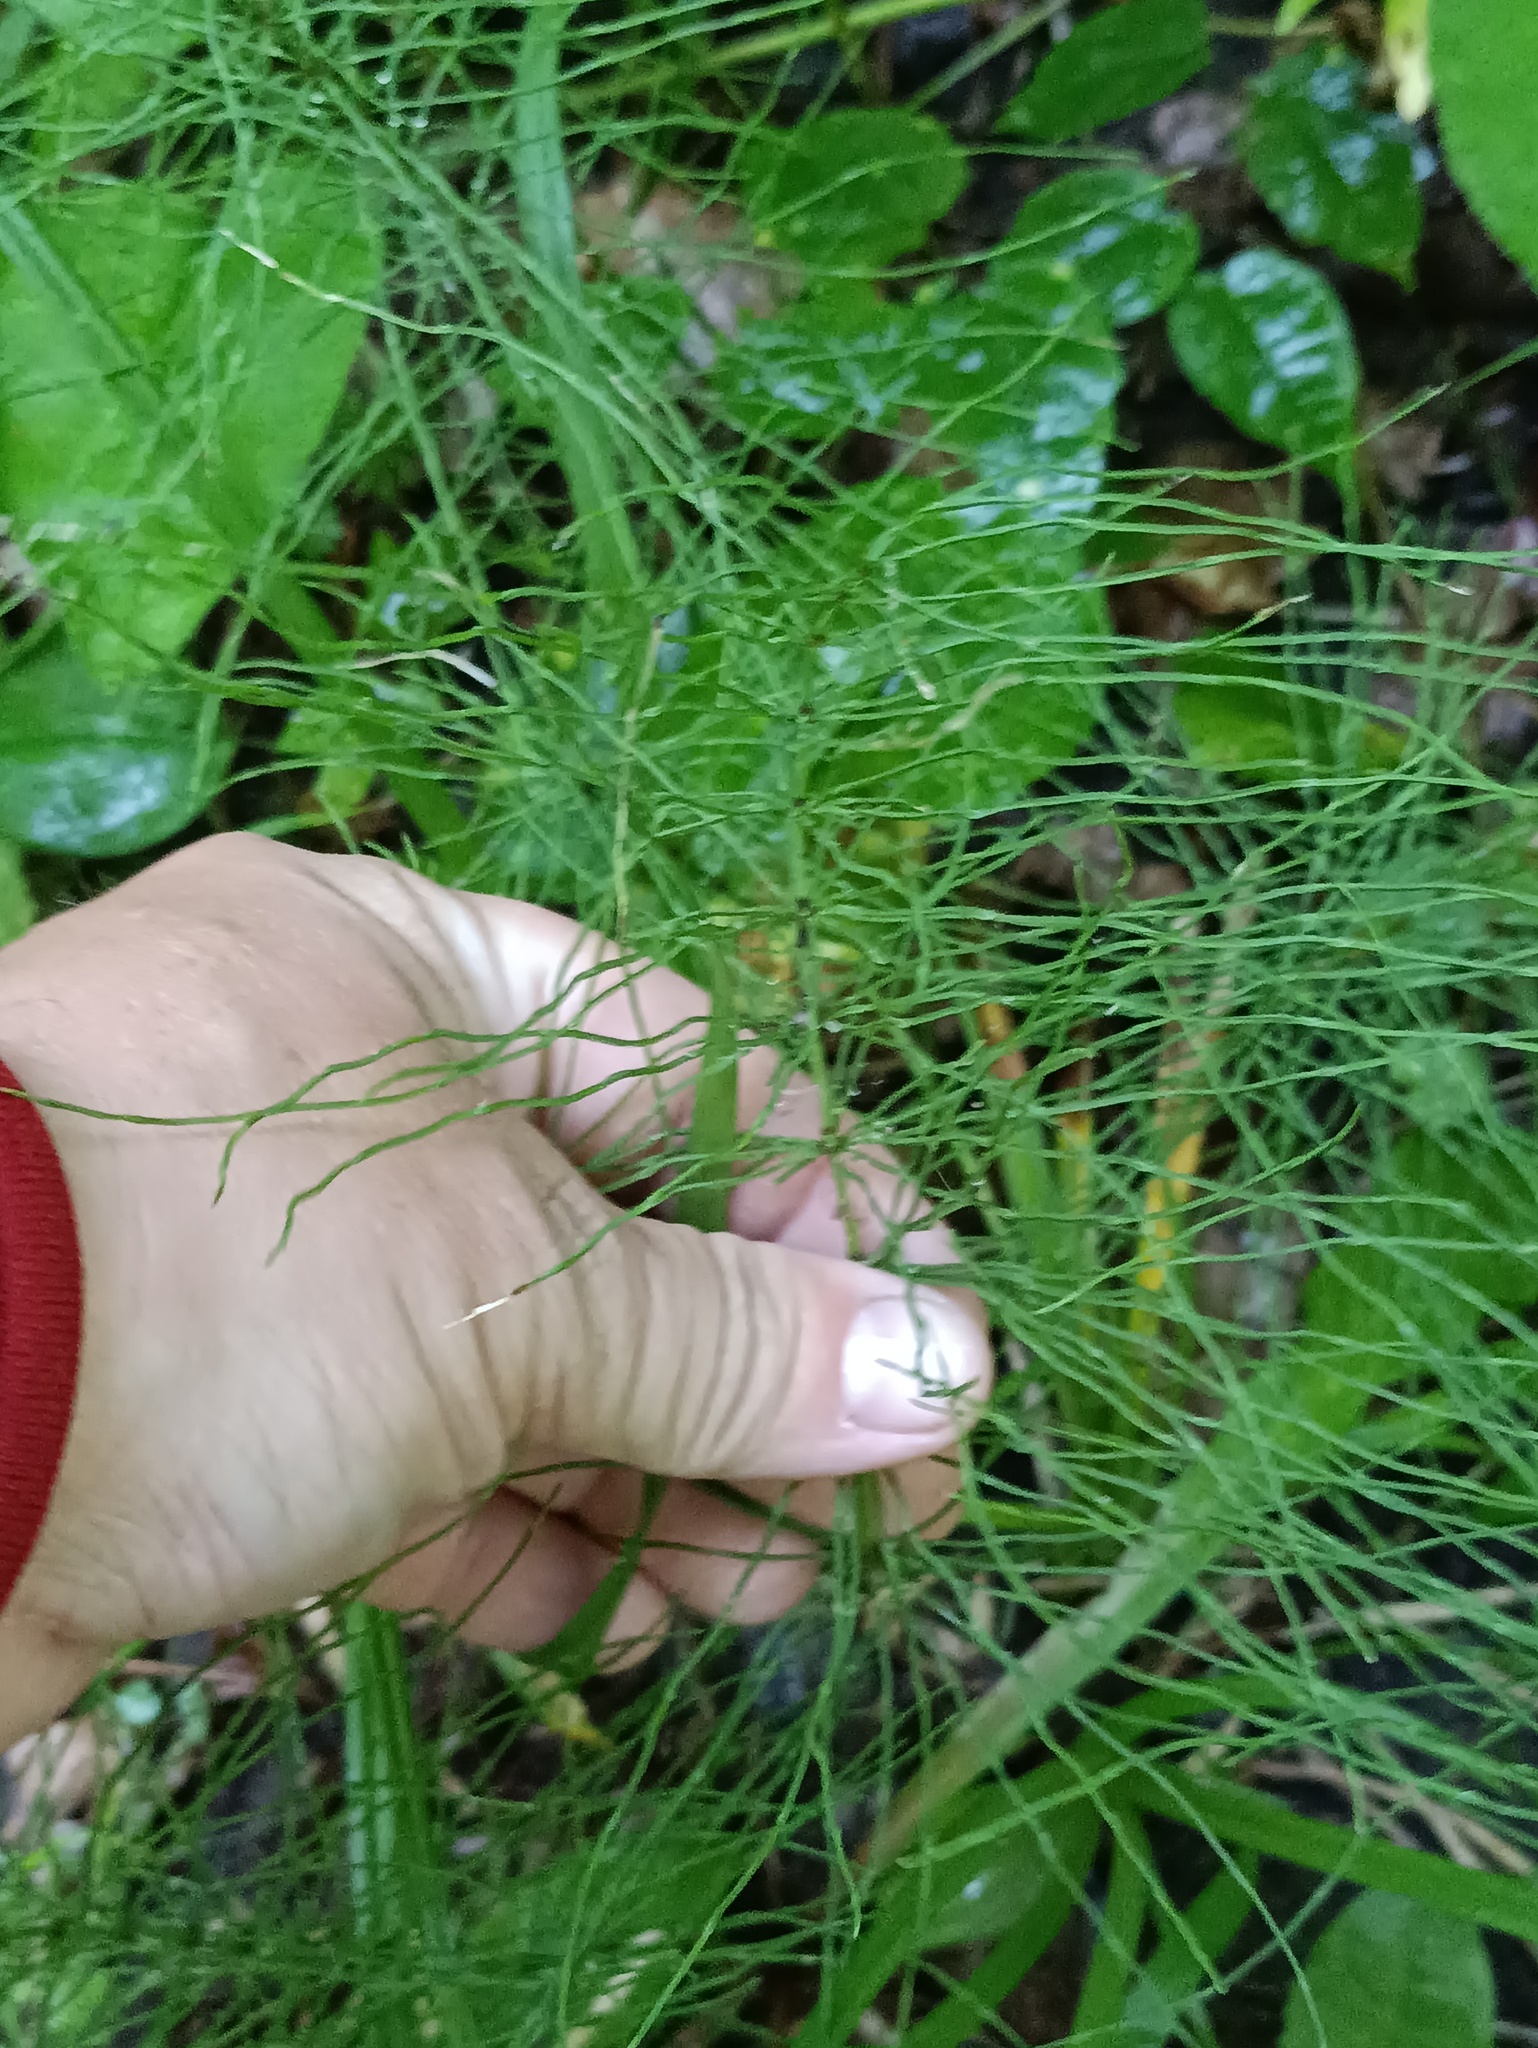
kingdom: Plantae
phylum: Tracheophyta
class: Polypodiopsida
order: Equisetales
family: Equisetaceae
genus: Equisetum
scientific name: Equisetum pratense
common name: Meadow horsetail
